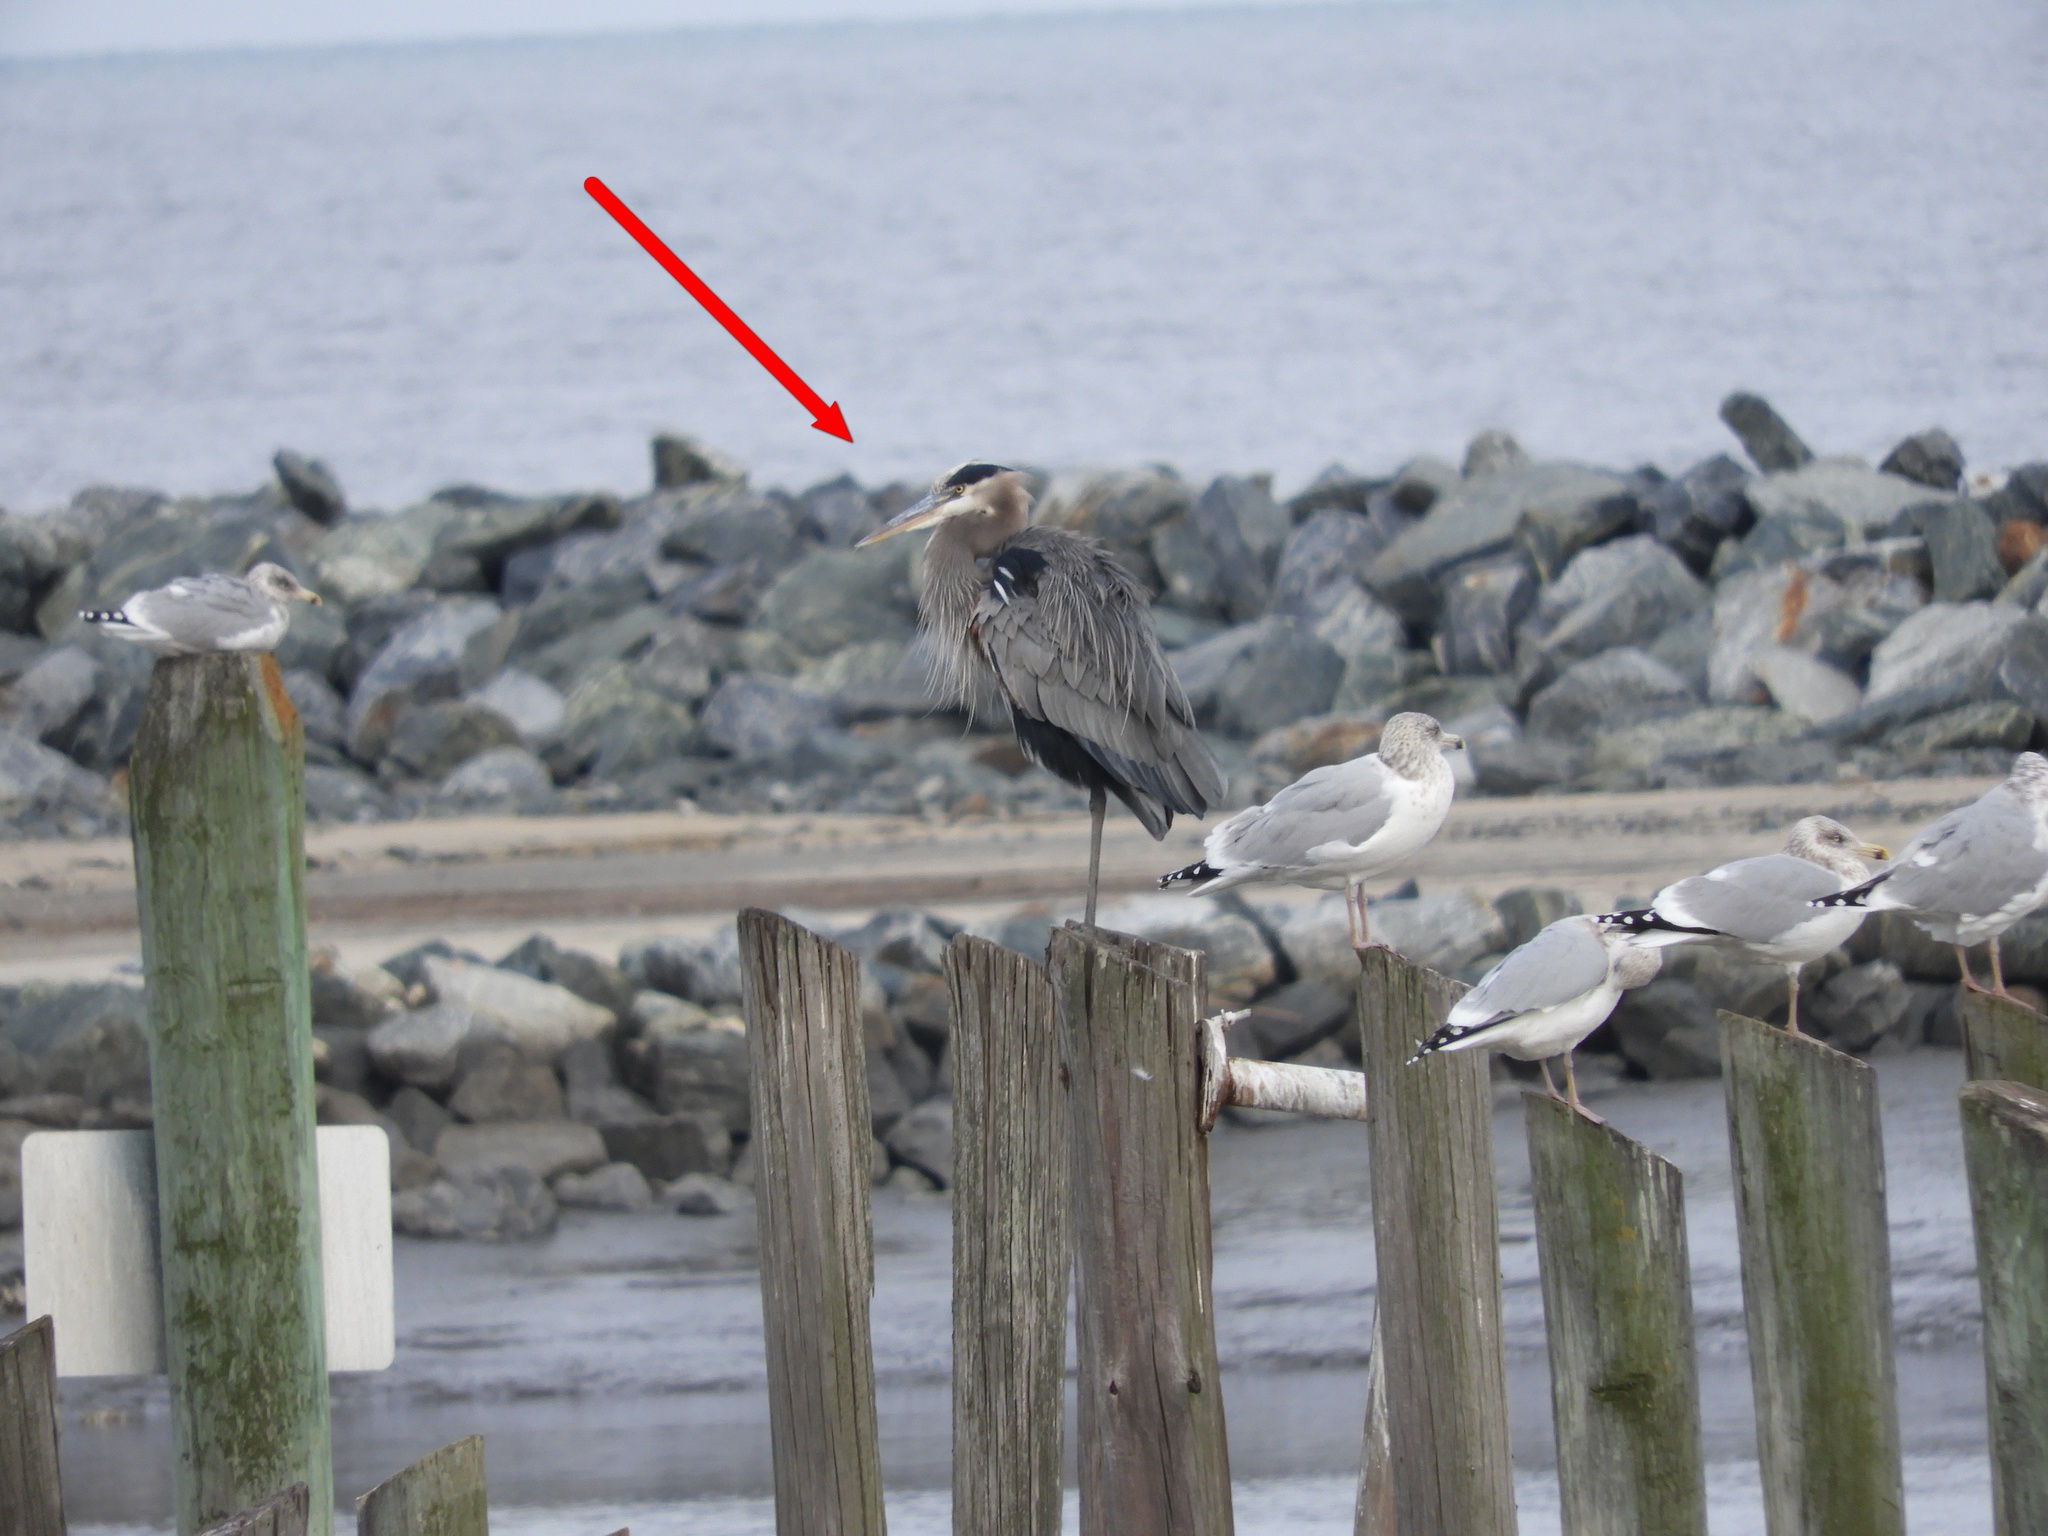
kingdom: Animalia
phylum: Chordata
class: Aves
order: Pelecaniformes
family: Ardeidae
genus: Ardea
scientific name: Ardea herodias
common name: Great blue heron
